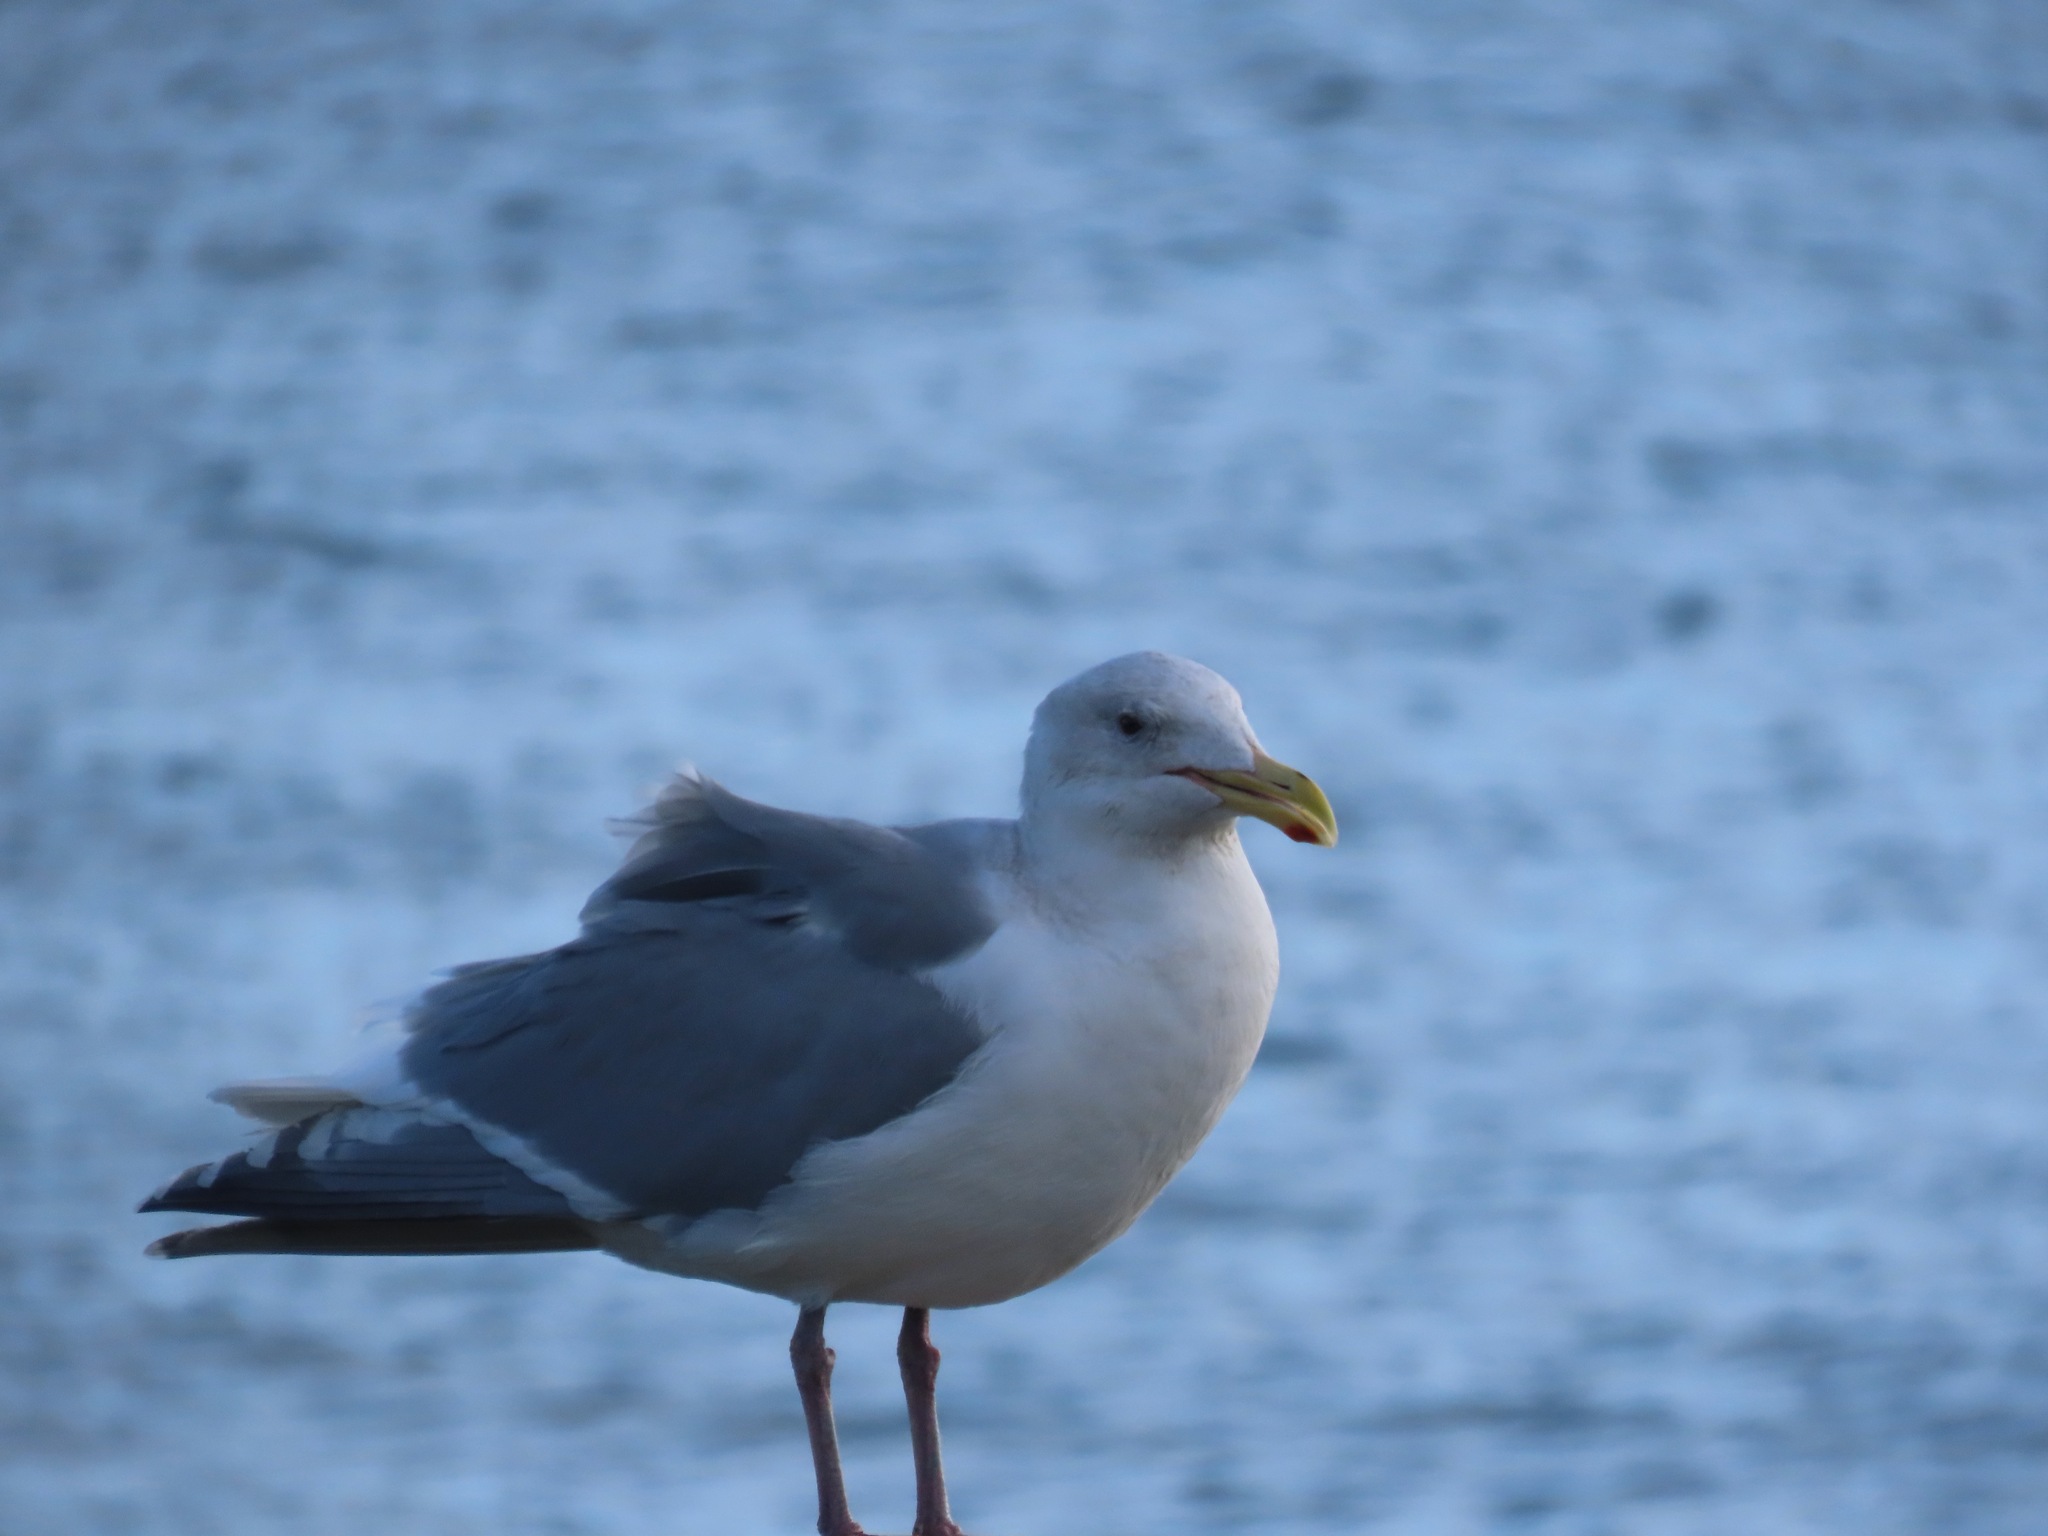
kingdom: Animalia
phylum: Chordata
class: Aves
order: Charadriiformes
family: Laridae
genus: Larus
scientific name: Larus glaucescens
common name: Glaucous-winged gull
